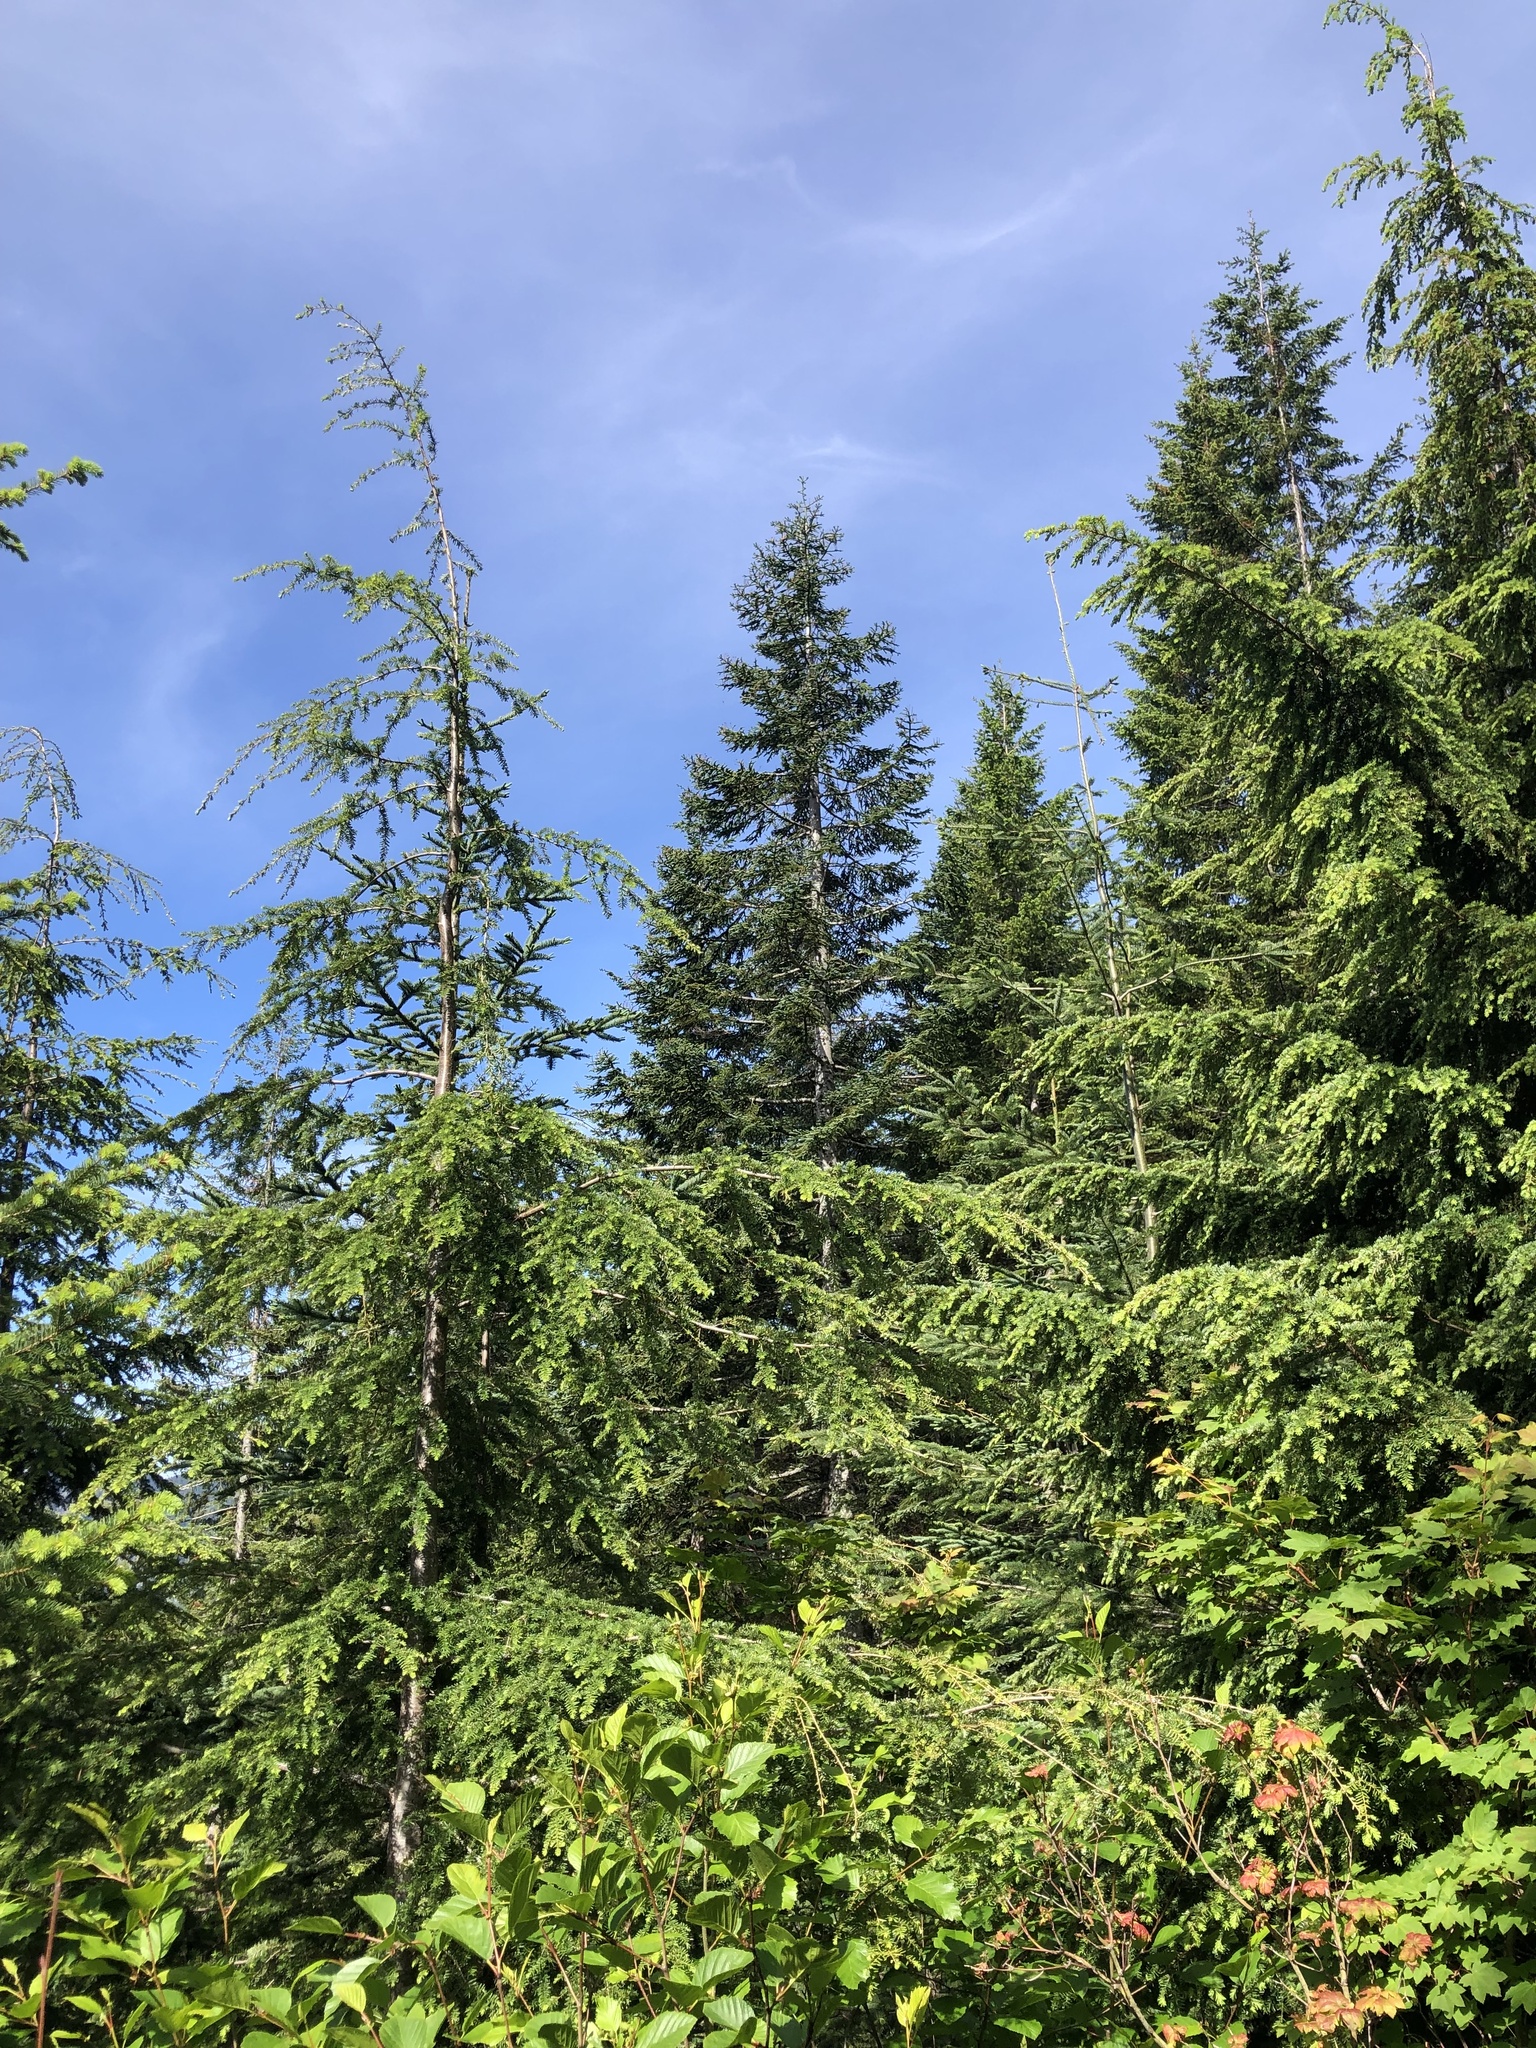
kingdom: Plantae
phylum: Tracheophyta
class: Pinopsida
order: Pinales
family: Pinaceae
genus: Tsuga
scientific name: Tsuga heterophylla
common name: Western hemlock
